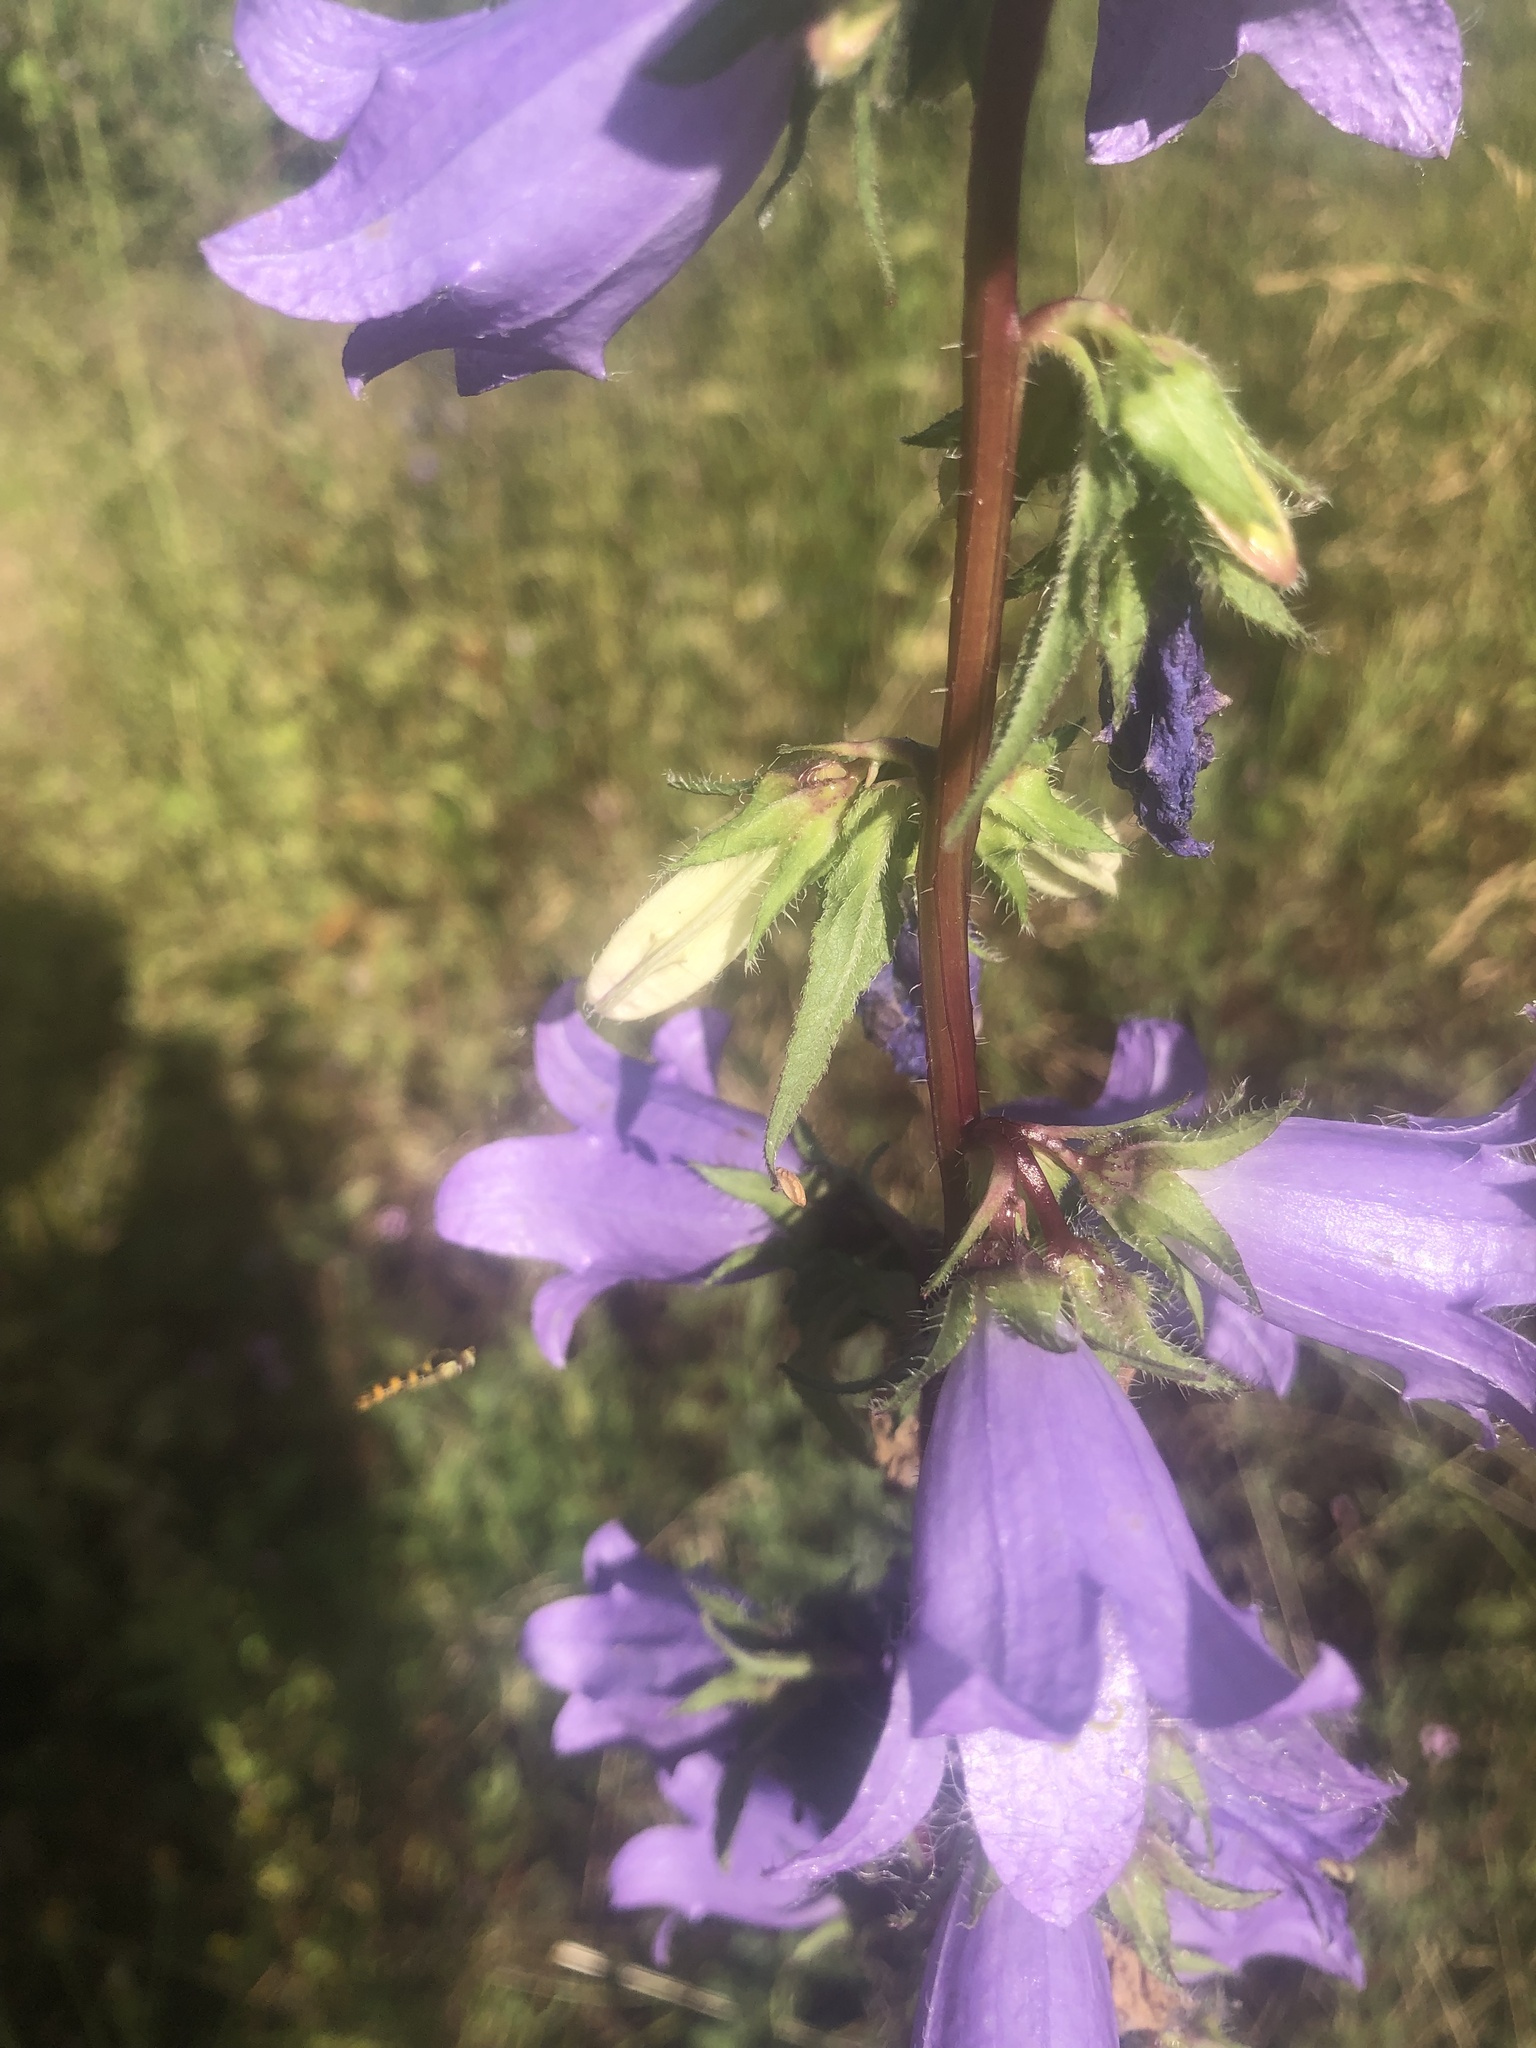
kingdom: Plantae
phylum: Tracheophyta
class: Magnoliopsida
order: Asterales
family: Campanulaceae
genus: Campanula
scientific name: Campanula trachelium
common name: Nettle-leaved bellflower
